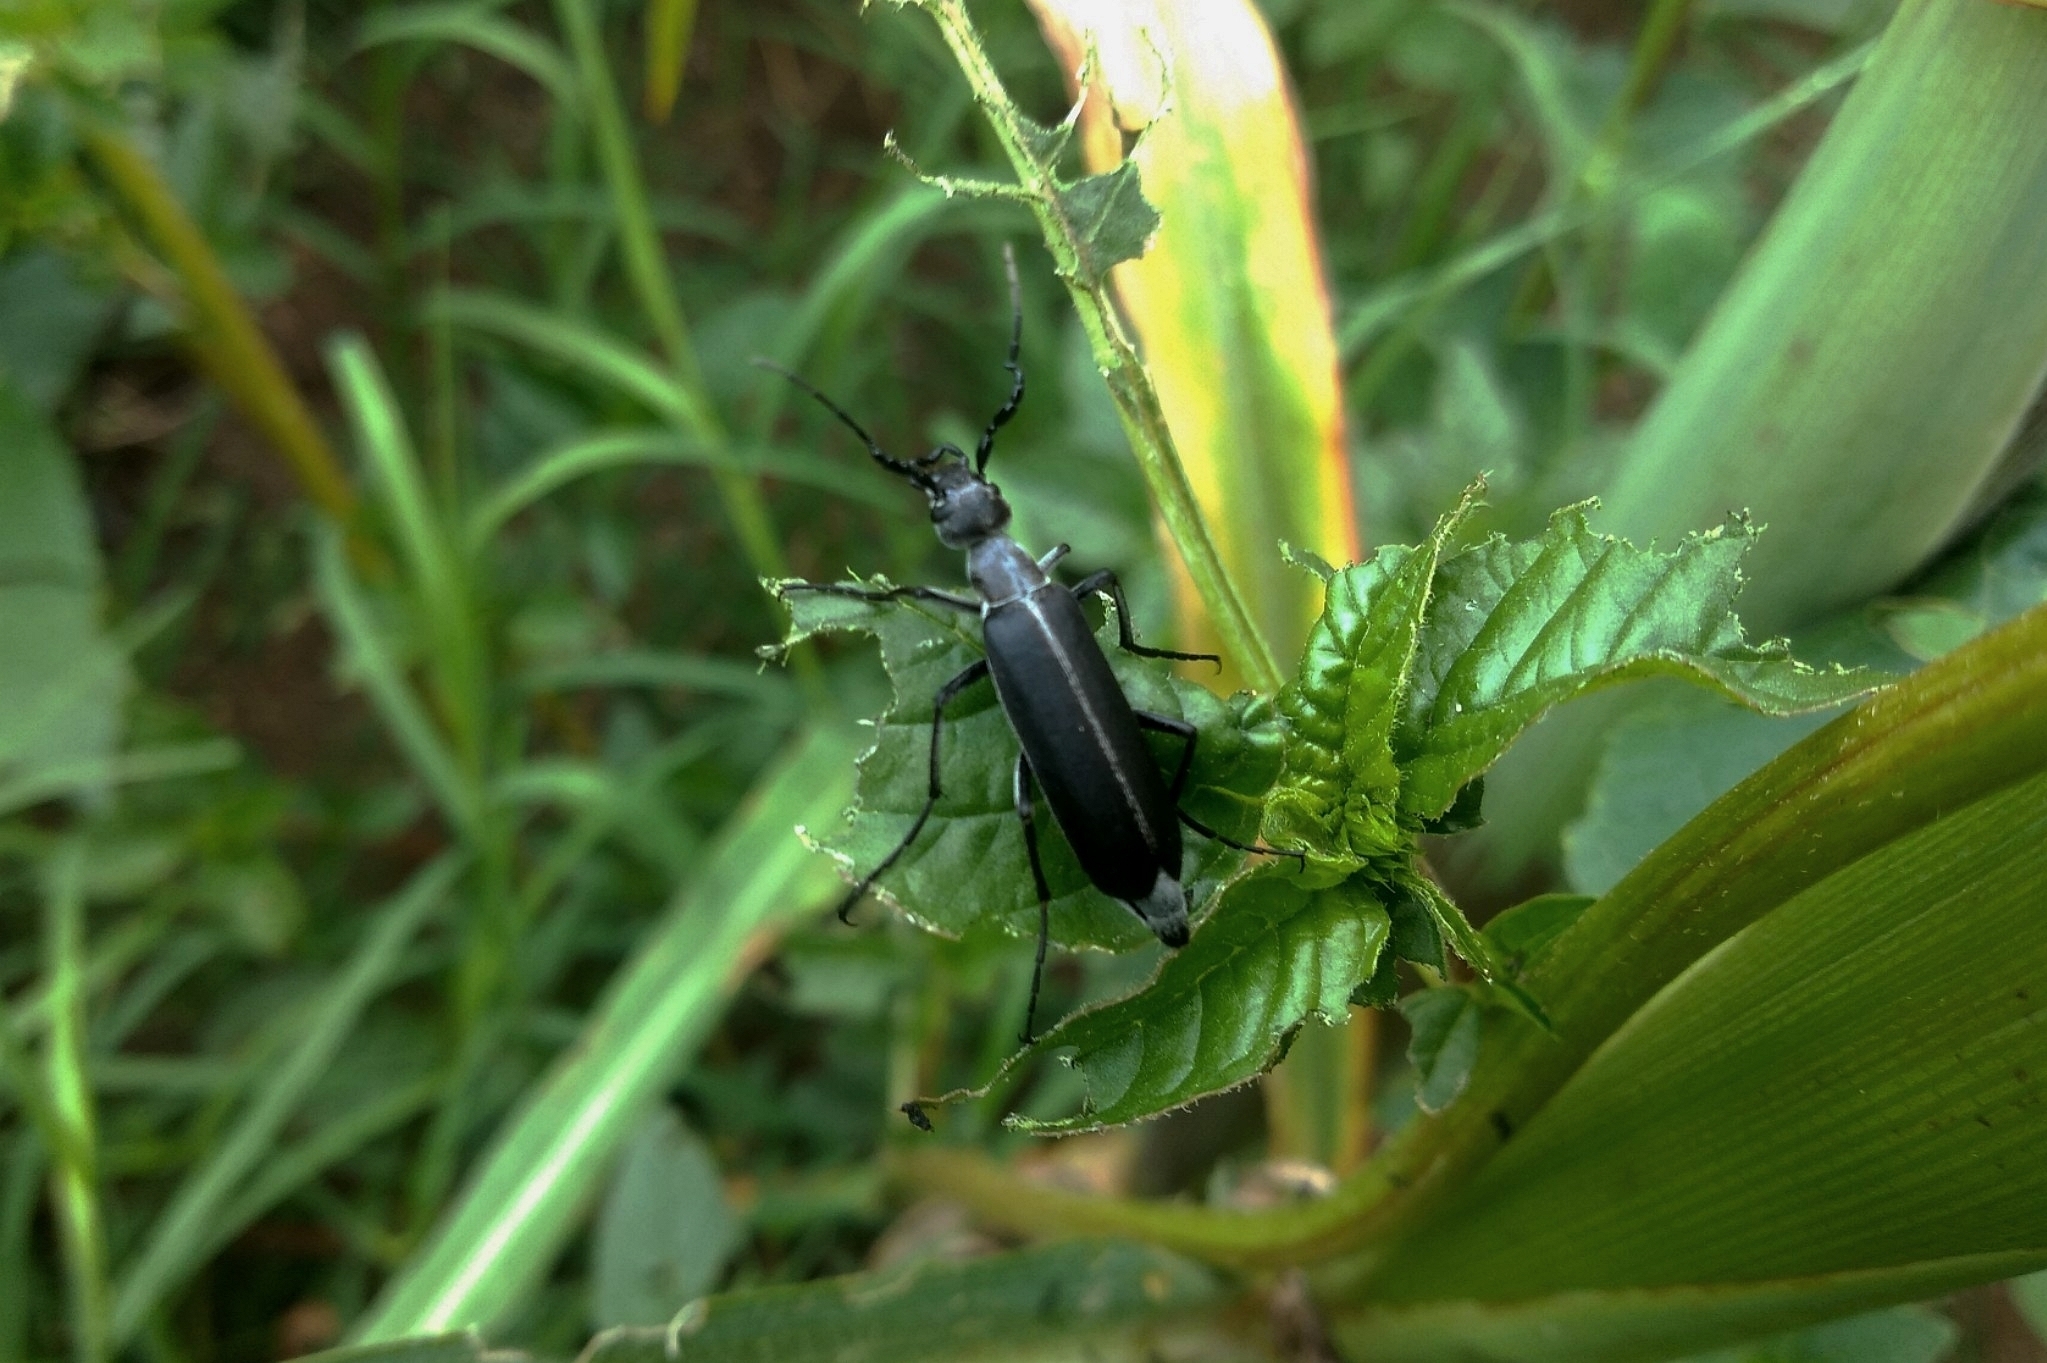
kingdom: Animalia
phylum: Arthropoda
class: Insecta
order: Coleoptera
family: Meloidae
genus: Epicauta
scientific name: Epicauta curvicornis
